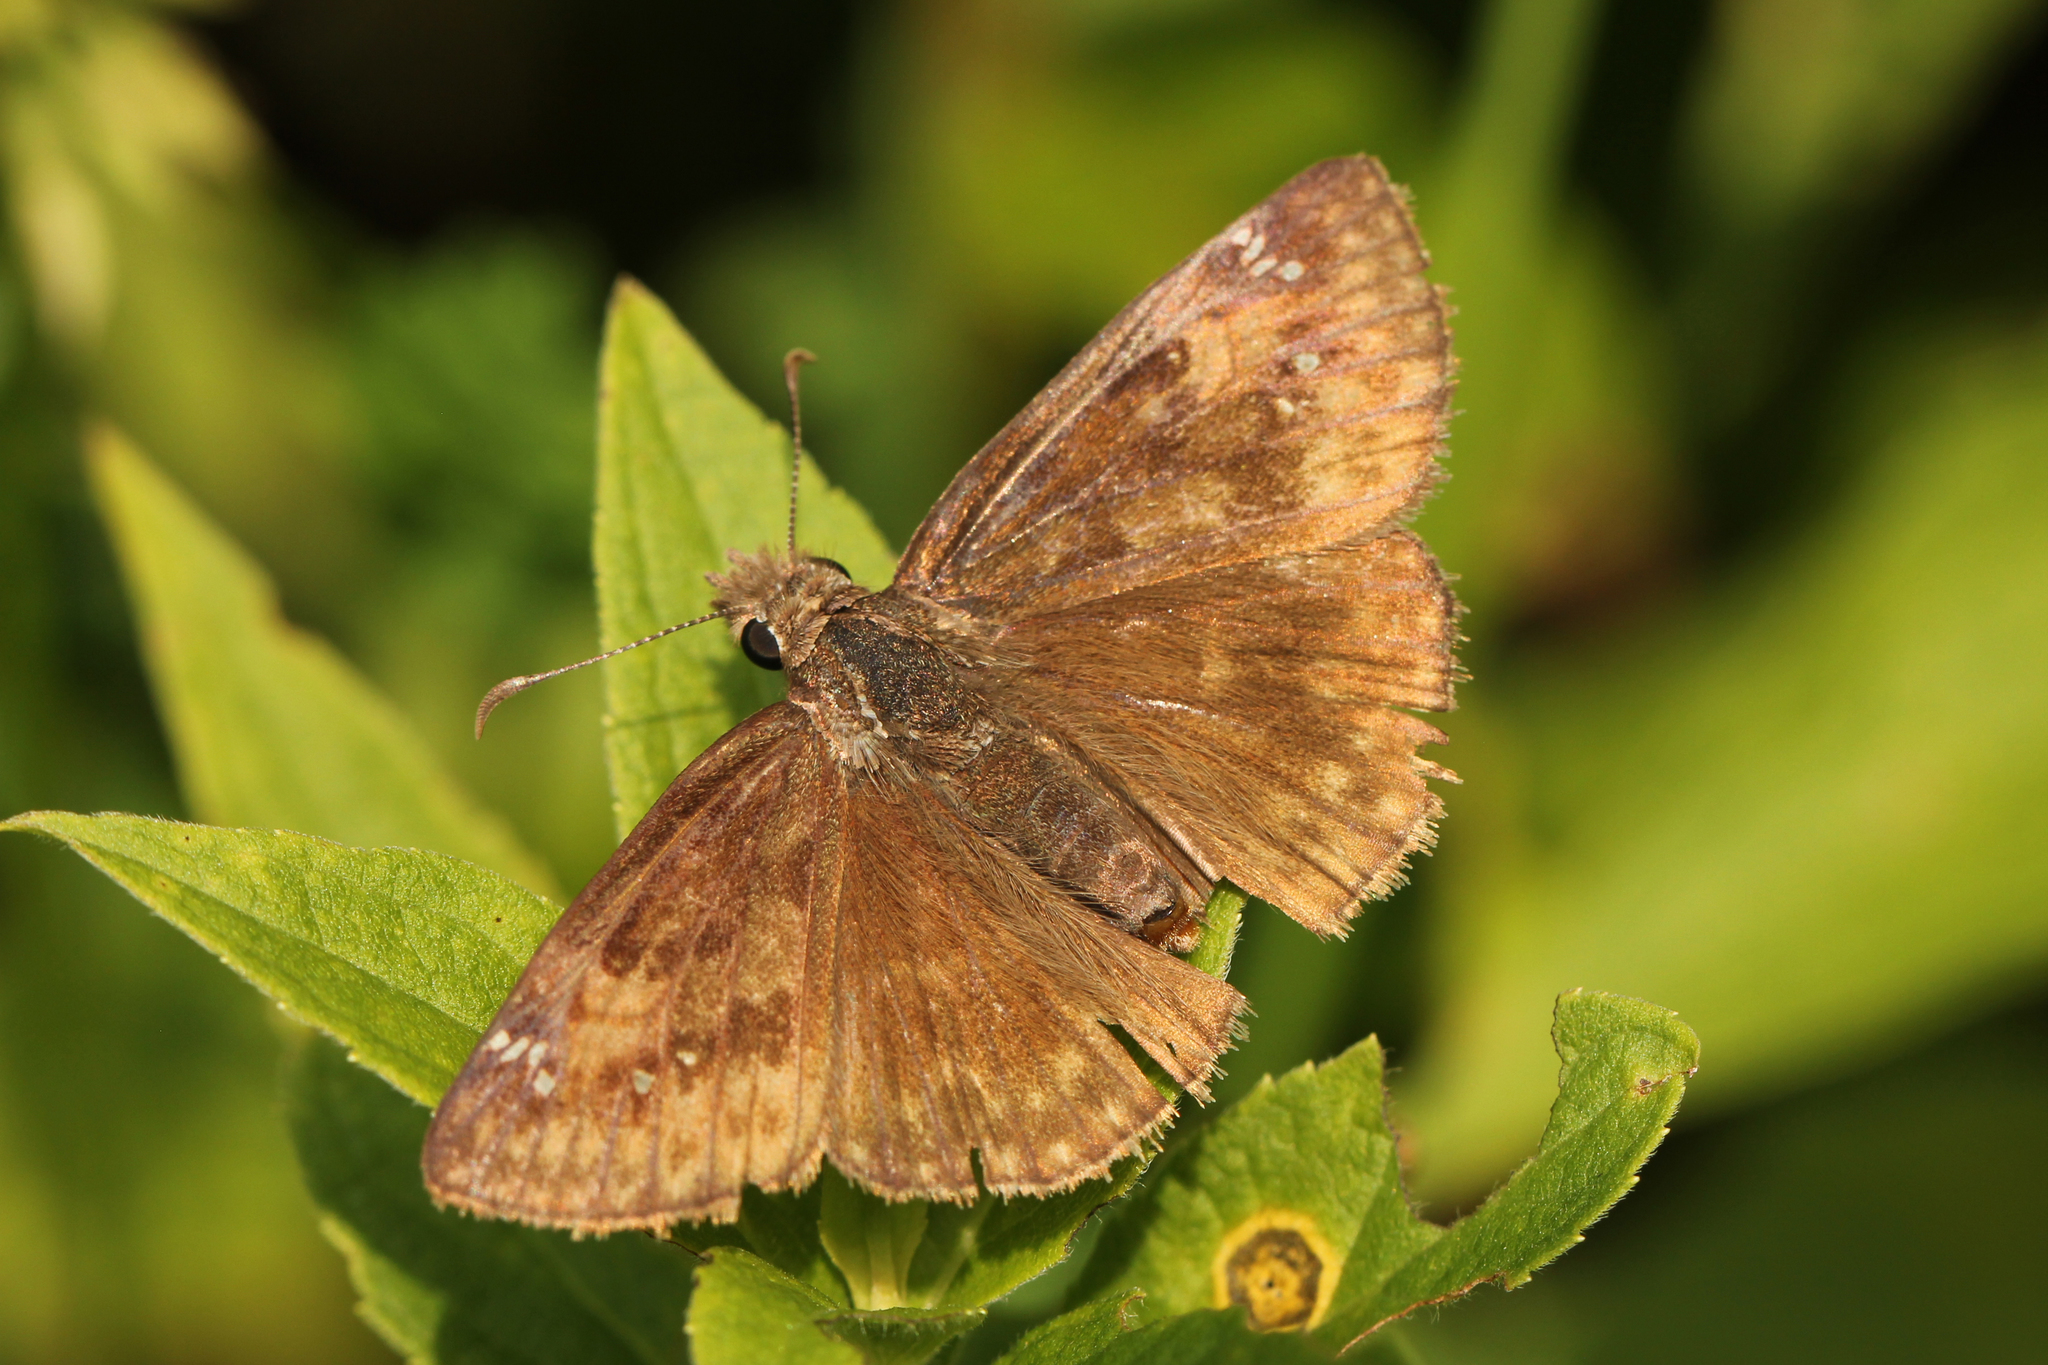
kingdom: Animalia
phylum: Arthropoda
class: Insecta
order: Lepidoptera
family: Hesperiidae
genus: Erynnis
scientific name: Erynnis baptisiae
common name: Wild indigo duskywing
